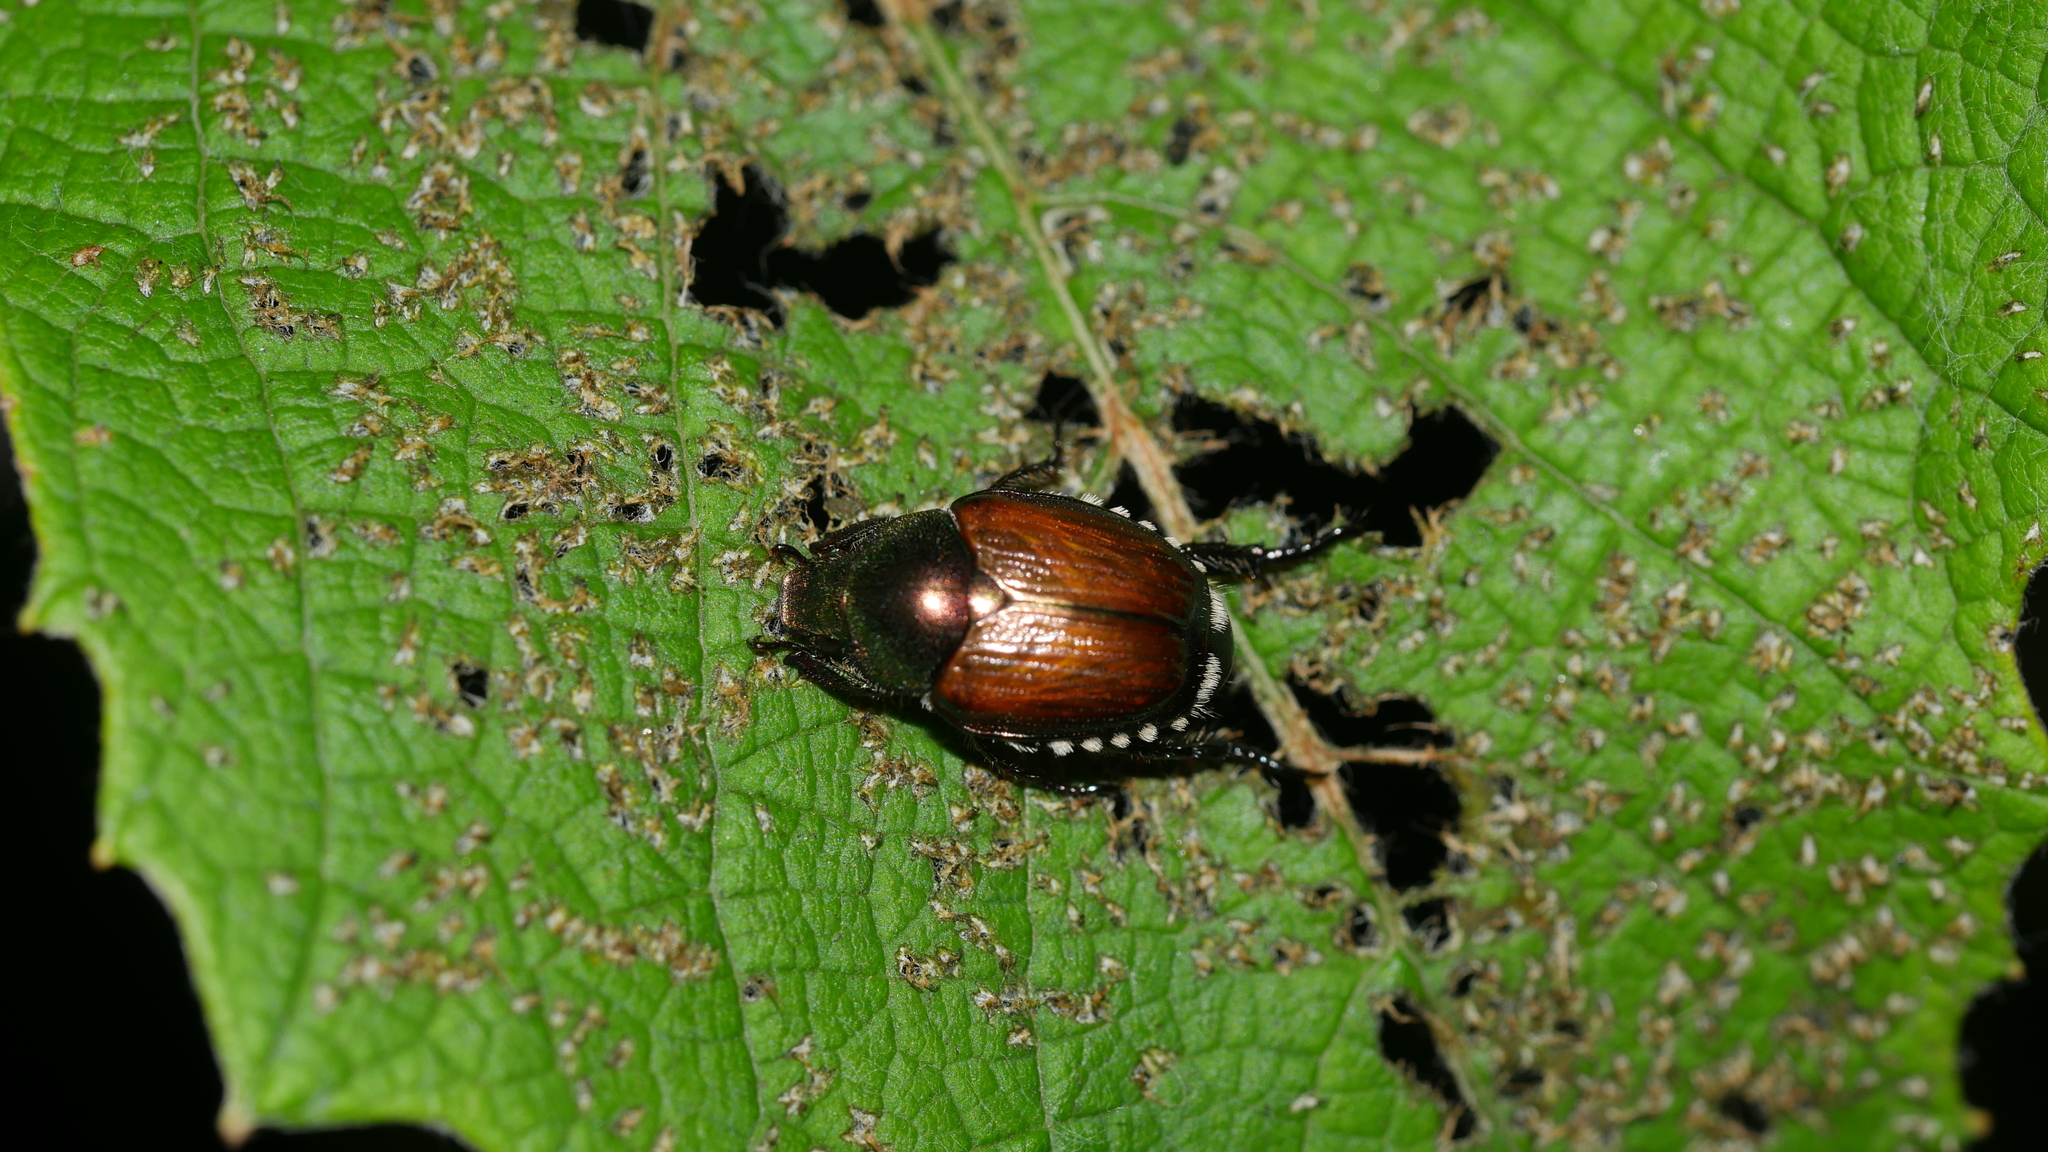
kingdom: Animalia
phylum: Arthropoda
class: Insecta
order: Coleoptera
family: Scarabaeidae
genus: Popillia
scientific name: Popillia japonica
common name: Japanese beetle
